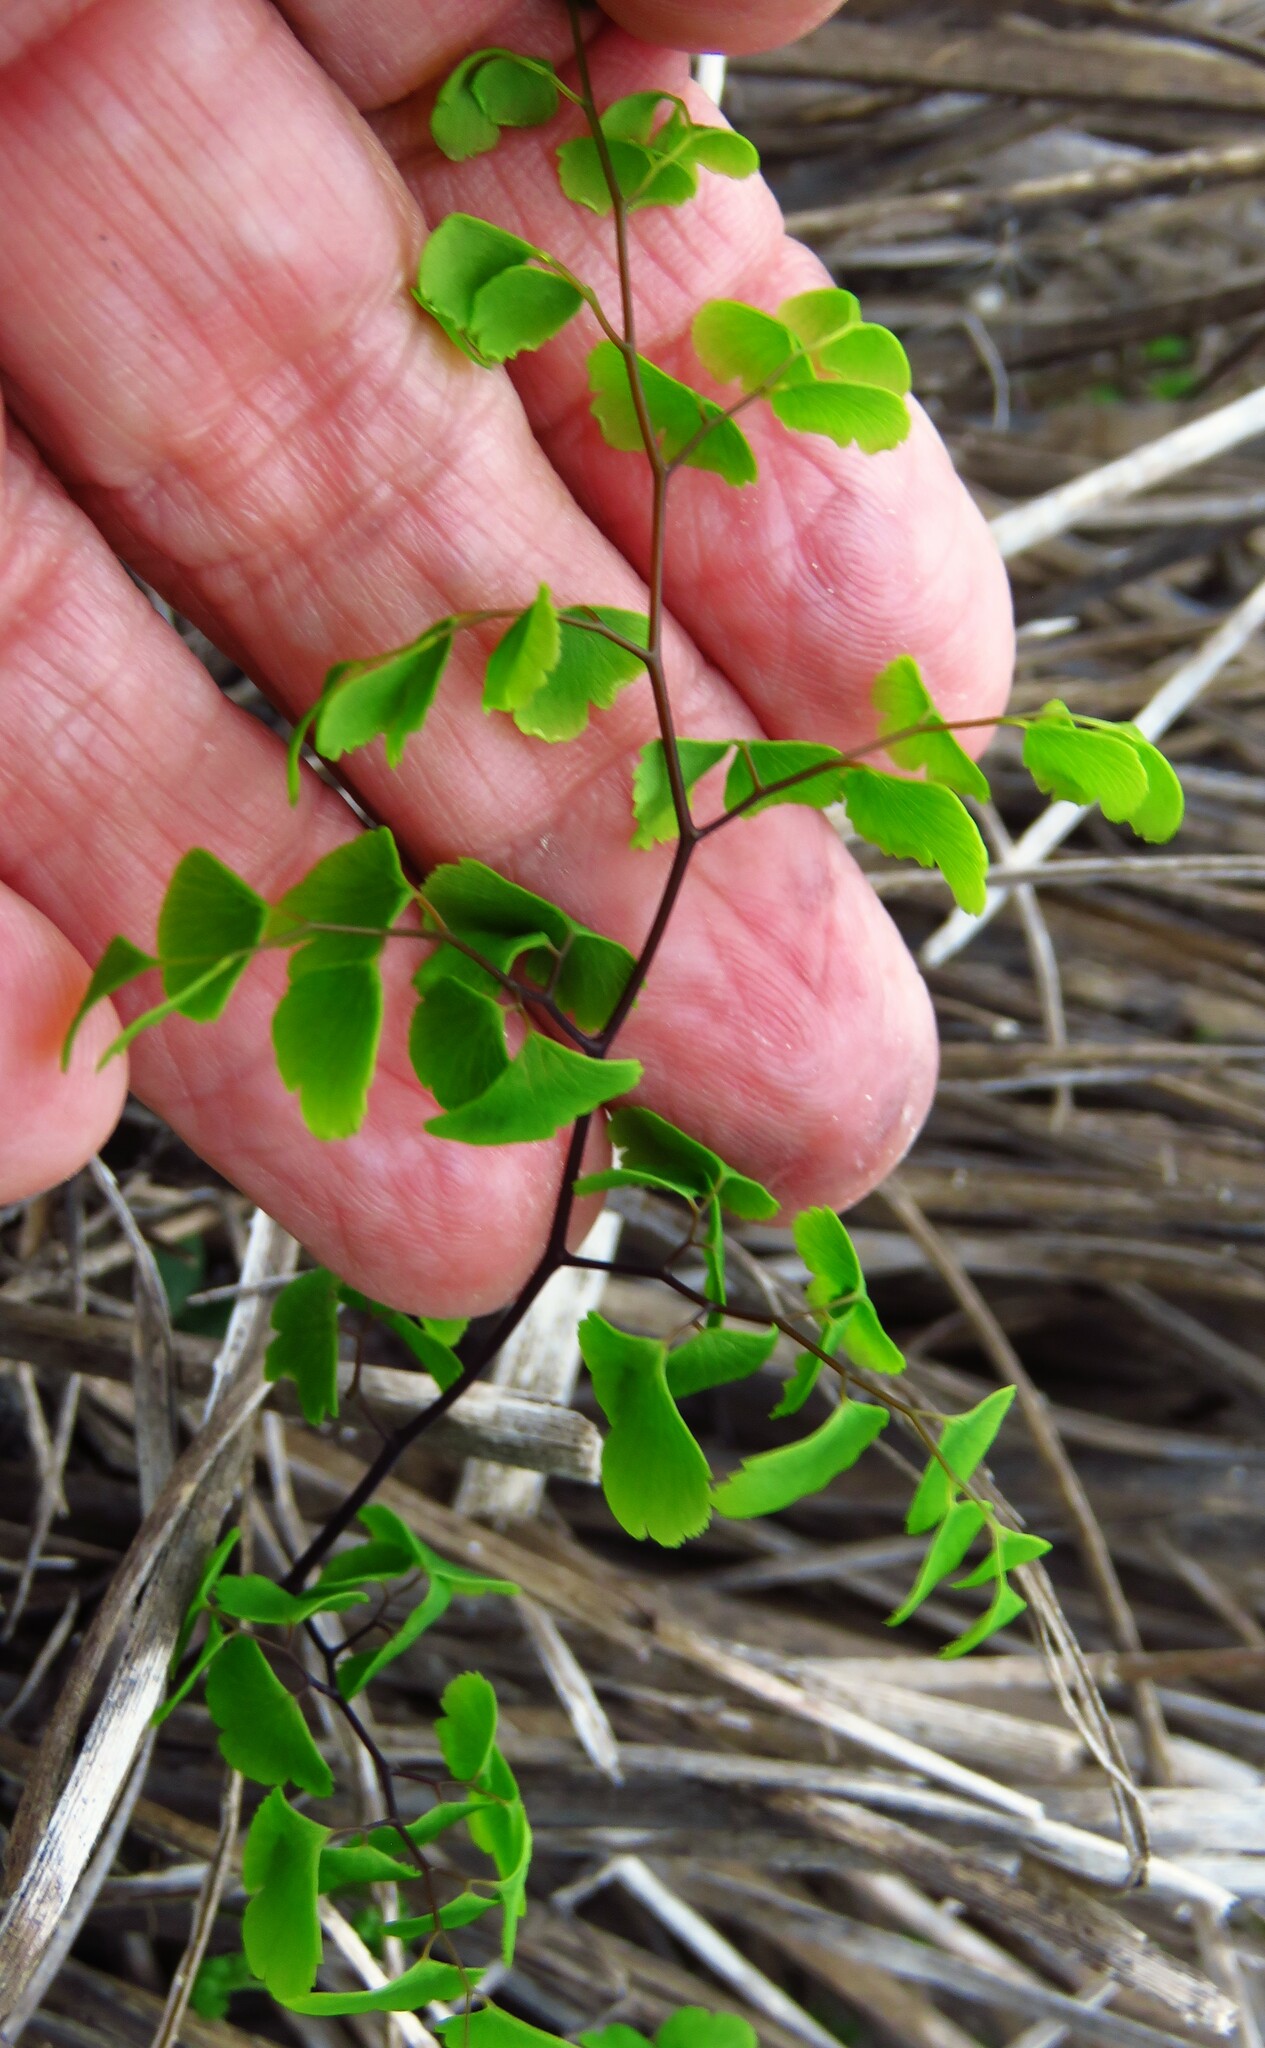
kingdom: Plantae
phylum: Tracheophyta
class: Polypodiopsida
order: Polypodiales
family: Pteridaceae
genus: Adiantum
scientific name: Adiantum capillus-veneris
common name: Maidenhair fern
